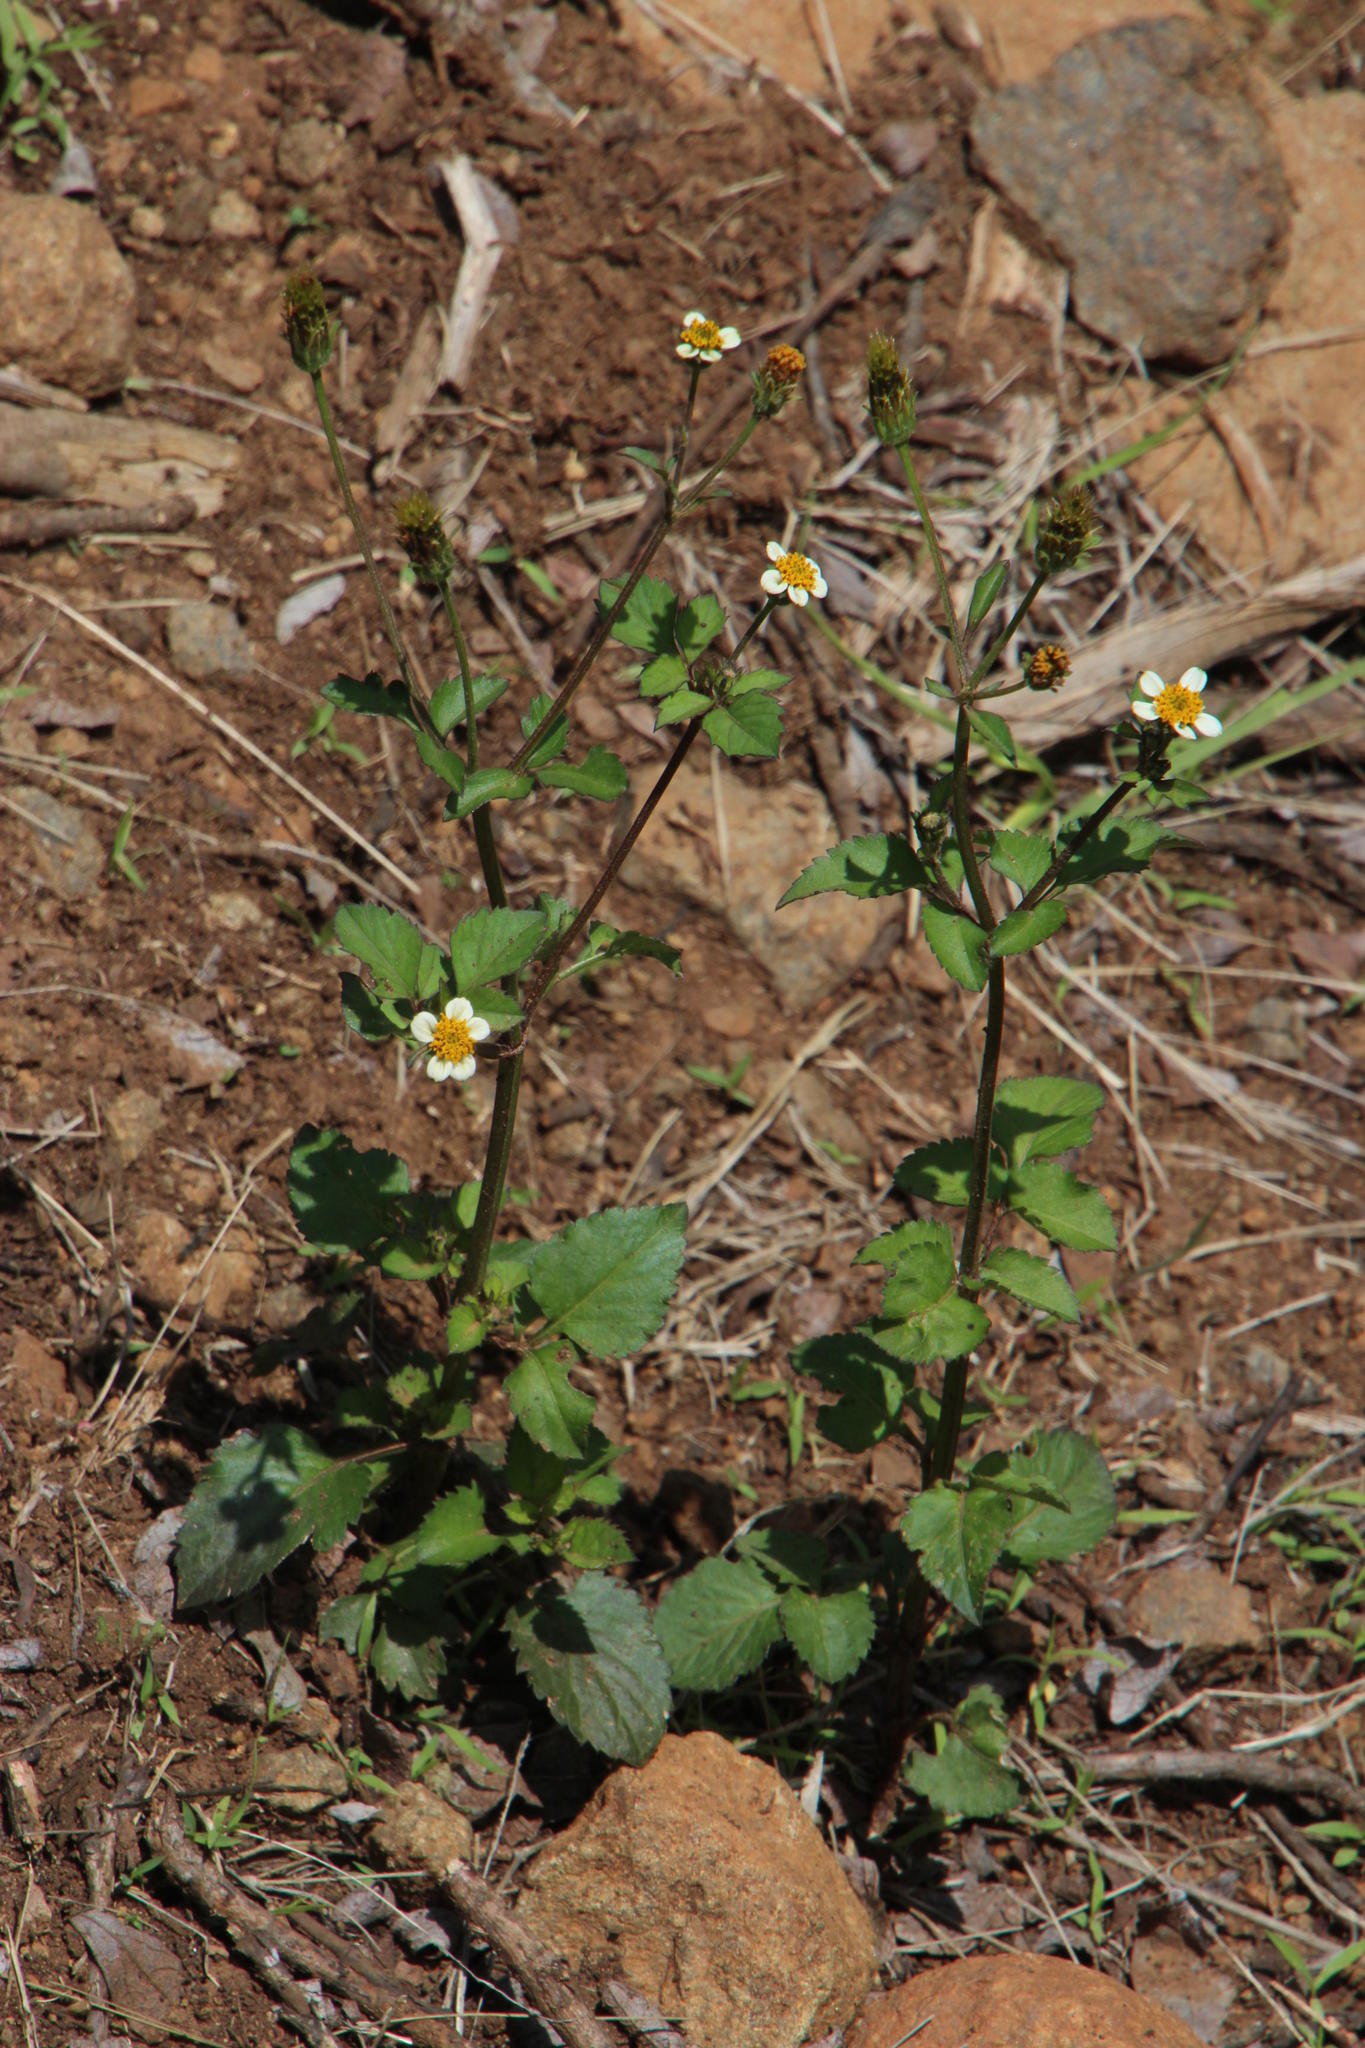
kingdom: Plantae
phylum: Tracheophyta
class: Magnoliopsida
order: Asterales
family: Asteraceae
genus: Bidens
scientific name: Bidens pilosa
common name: Black-jack
